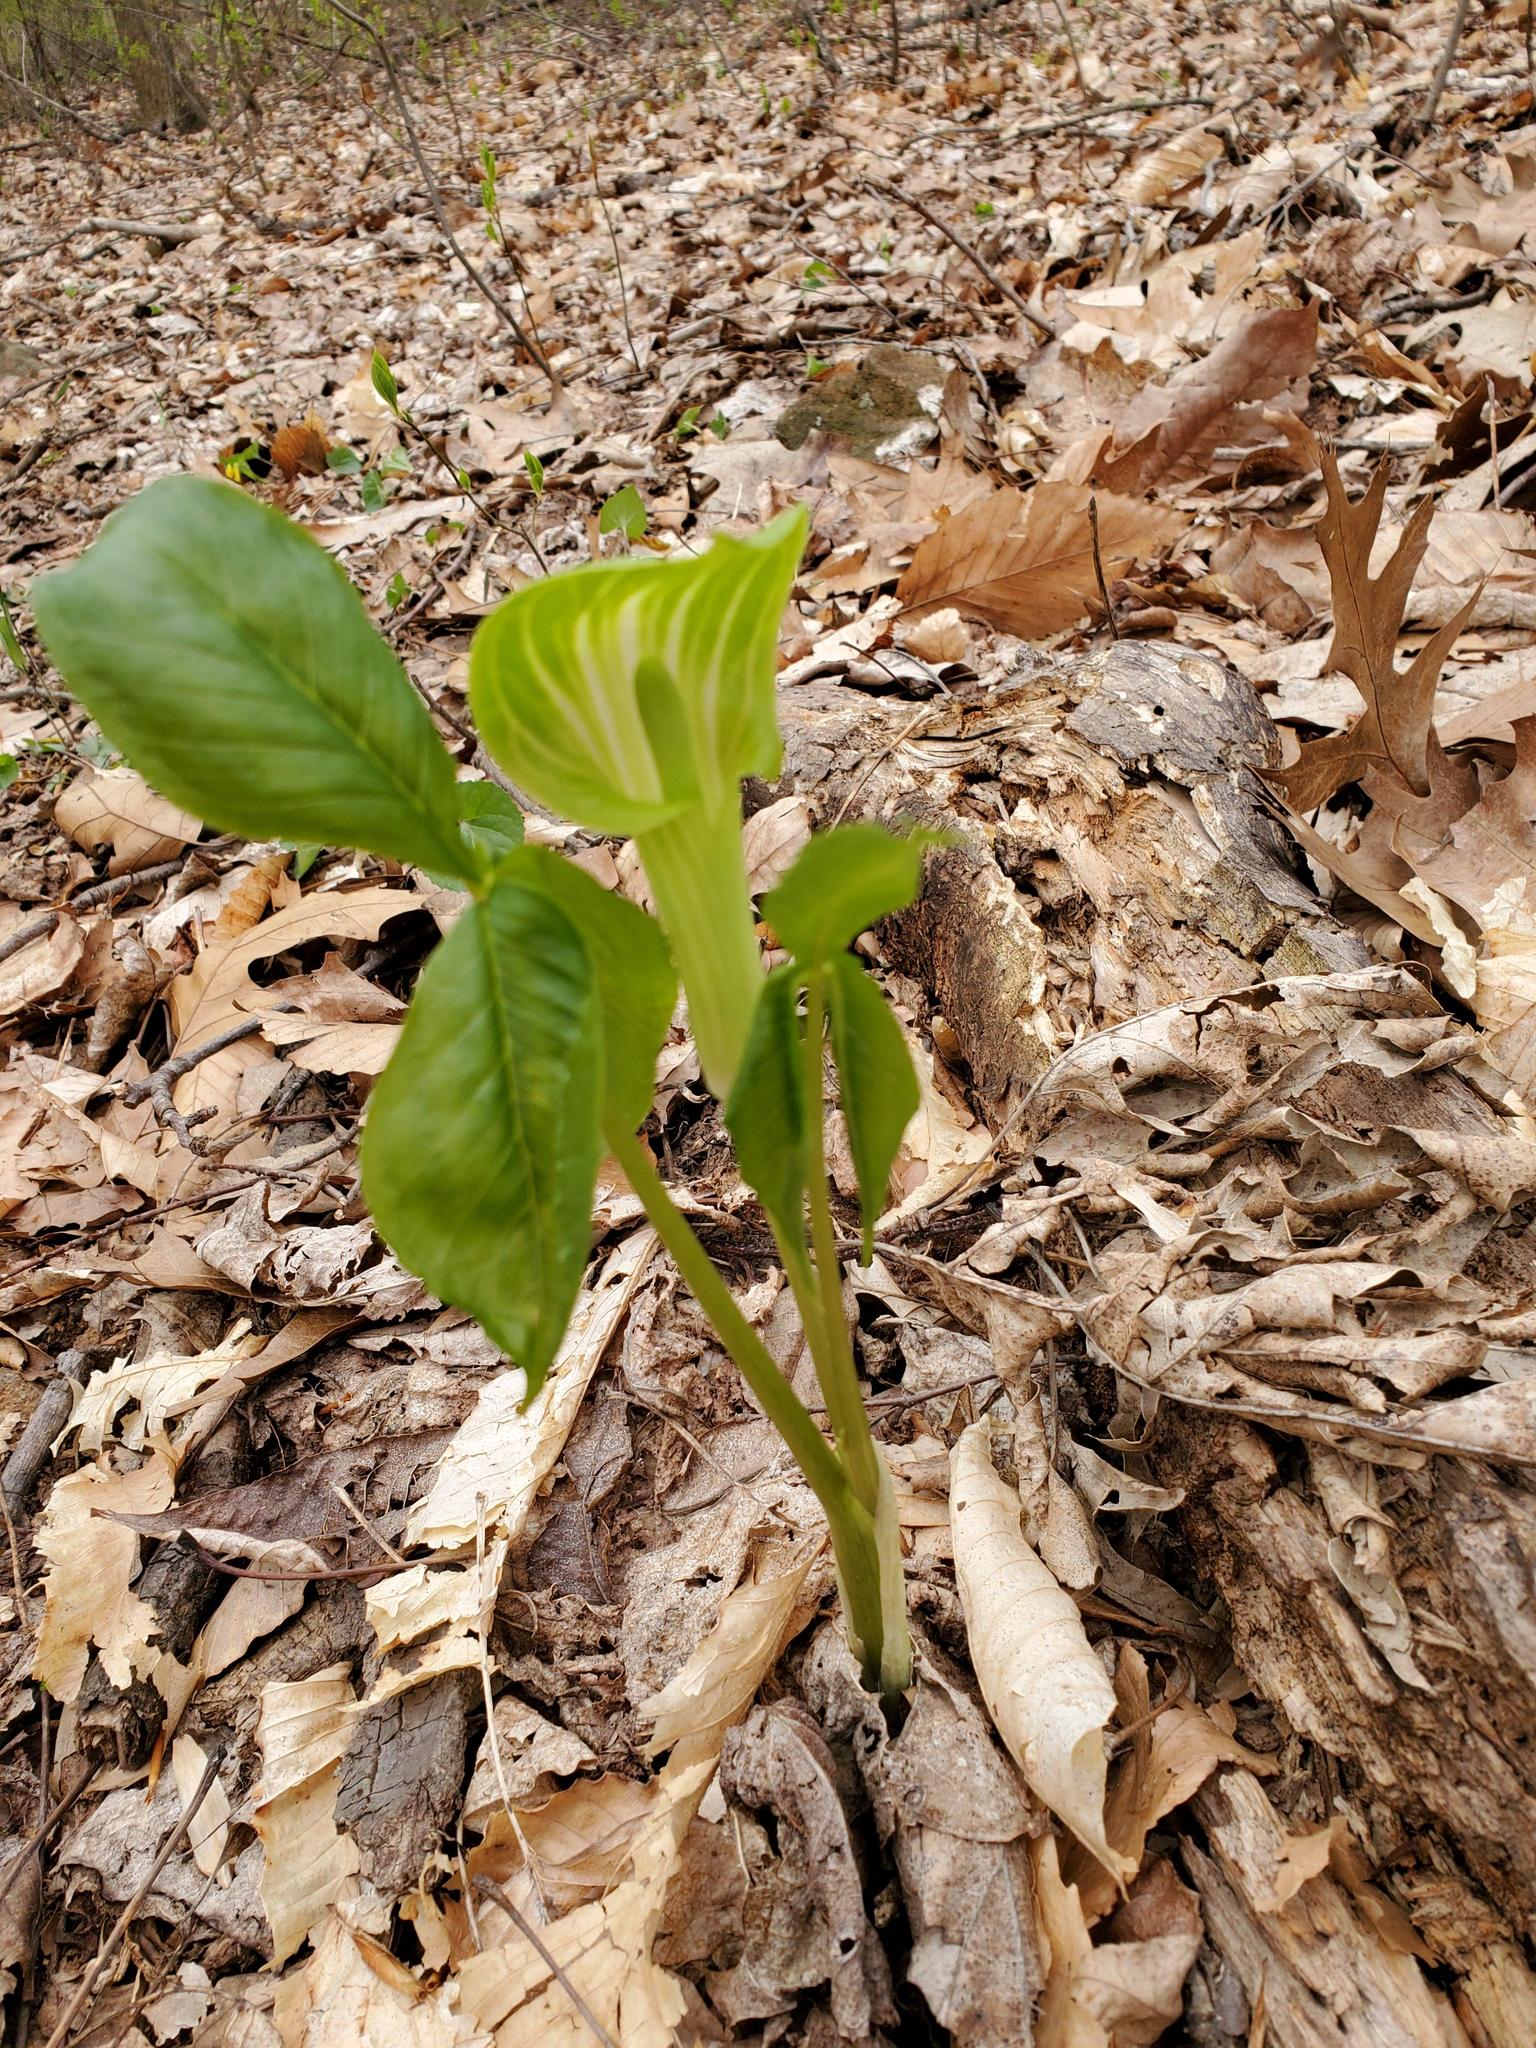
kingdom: Plantae
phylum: Tracheophyta
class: Liliopsida
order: Alismatales
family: Araceae
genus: Arisaema
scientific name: Arisaema triphyllum
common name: Jack-in-the-pulpit
